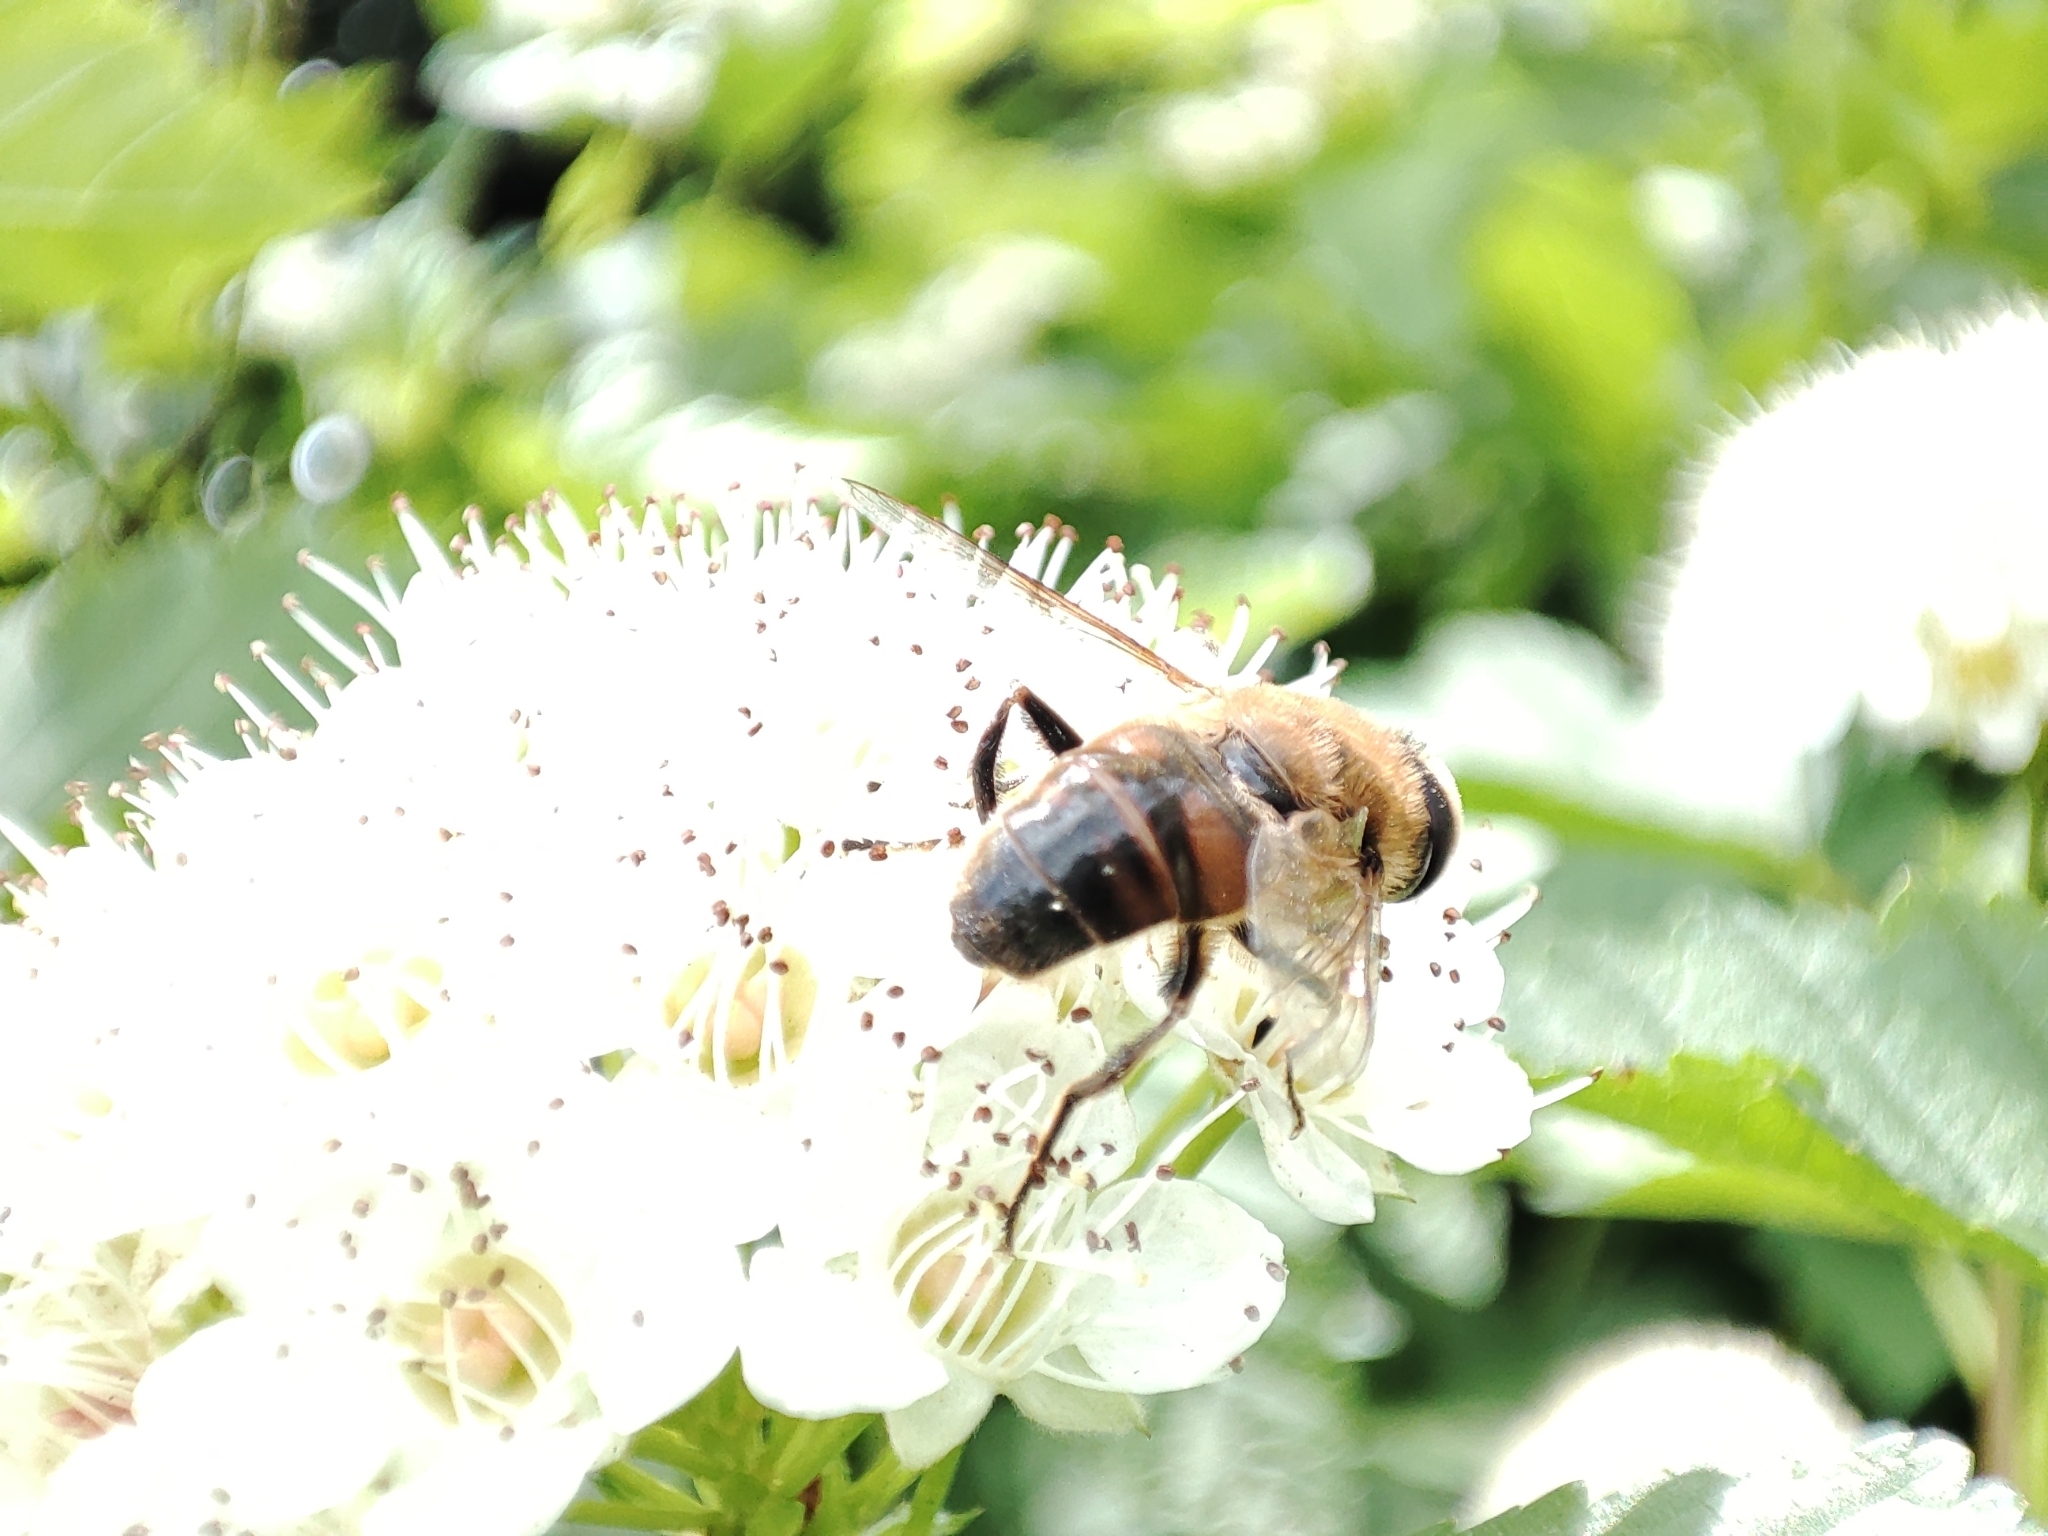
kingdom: Animalia
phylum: Arthropoda
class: Insecta
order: Diptera
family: Syrphidae
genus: Eristalis
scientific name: Eristalis tenax
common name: Drone fly
